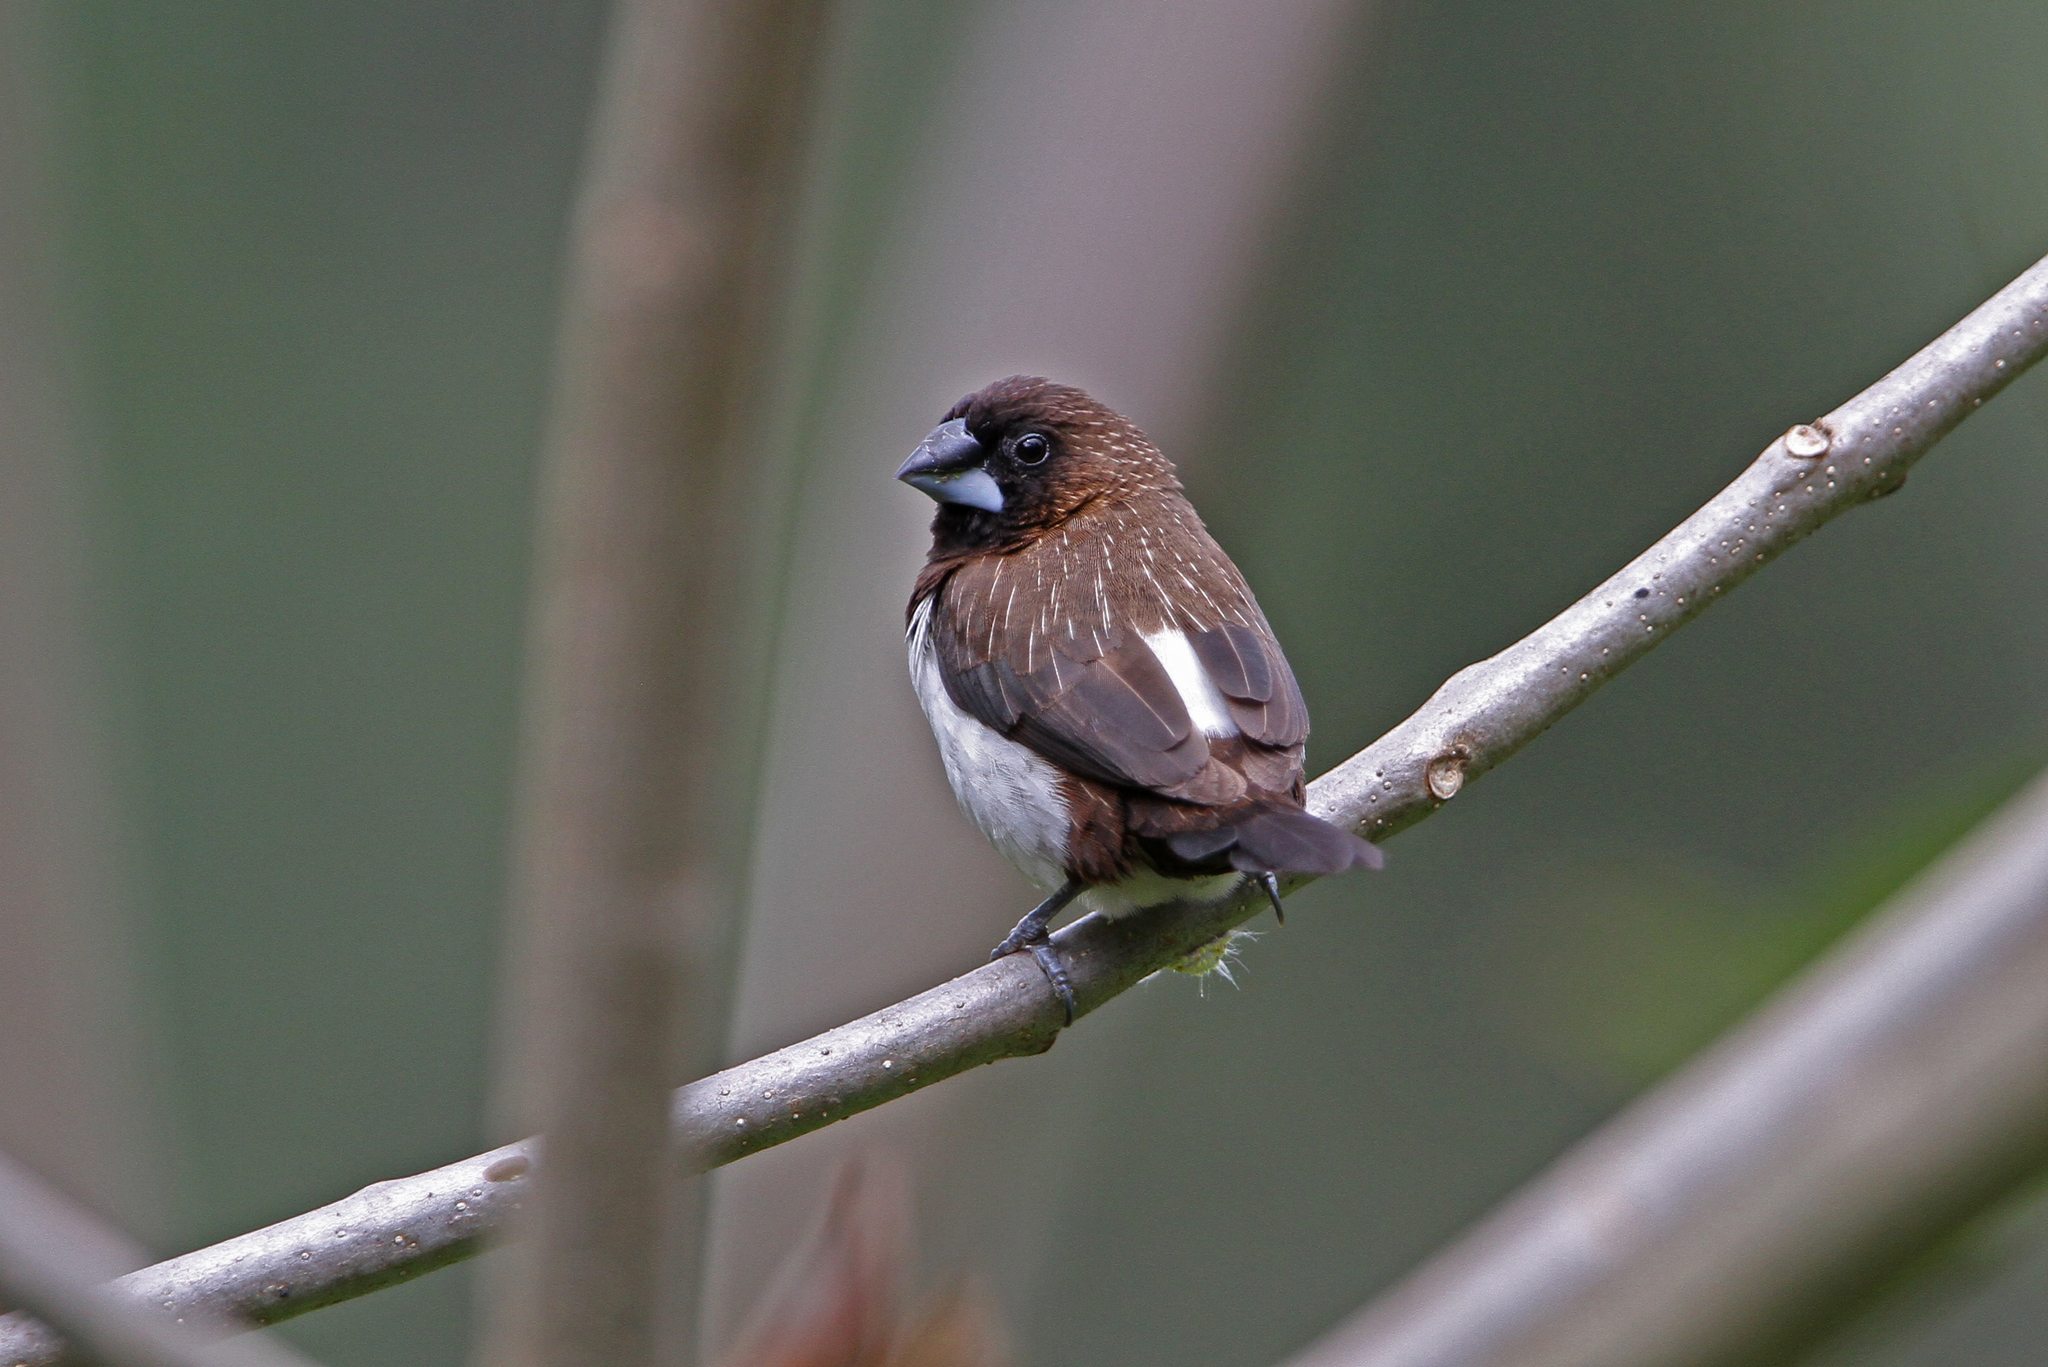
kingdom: Animalia
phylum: Chordata
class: Aves
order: Passeriformes
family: Estrildidae
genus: Lonchura
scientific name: Lonchura striata
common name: White-rumped munia
